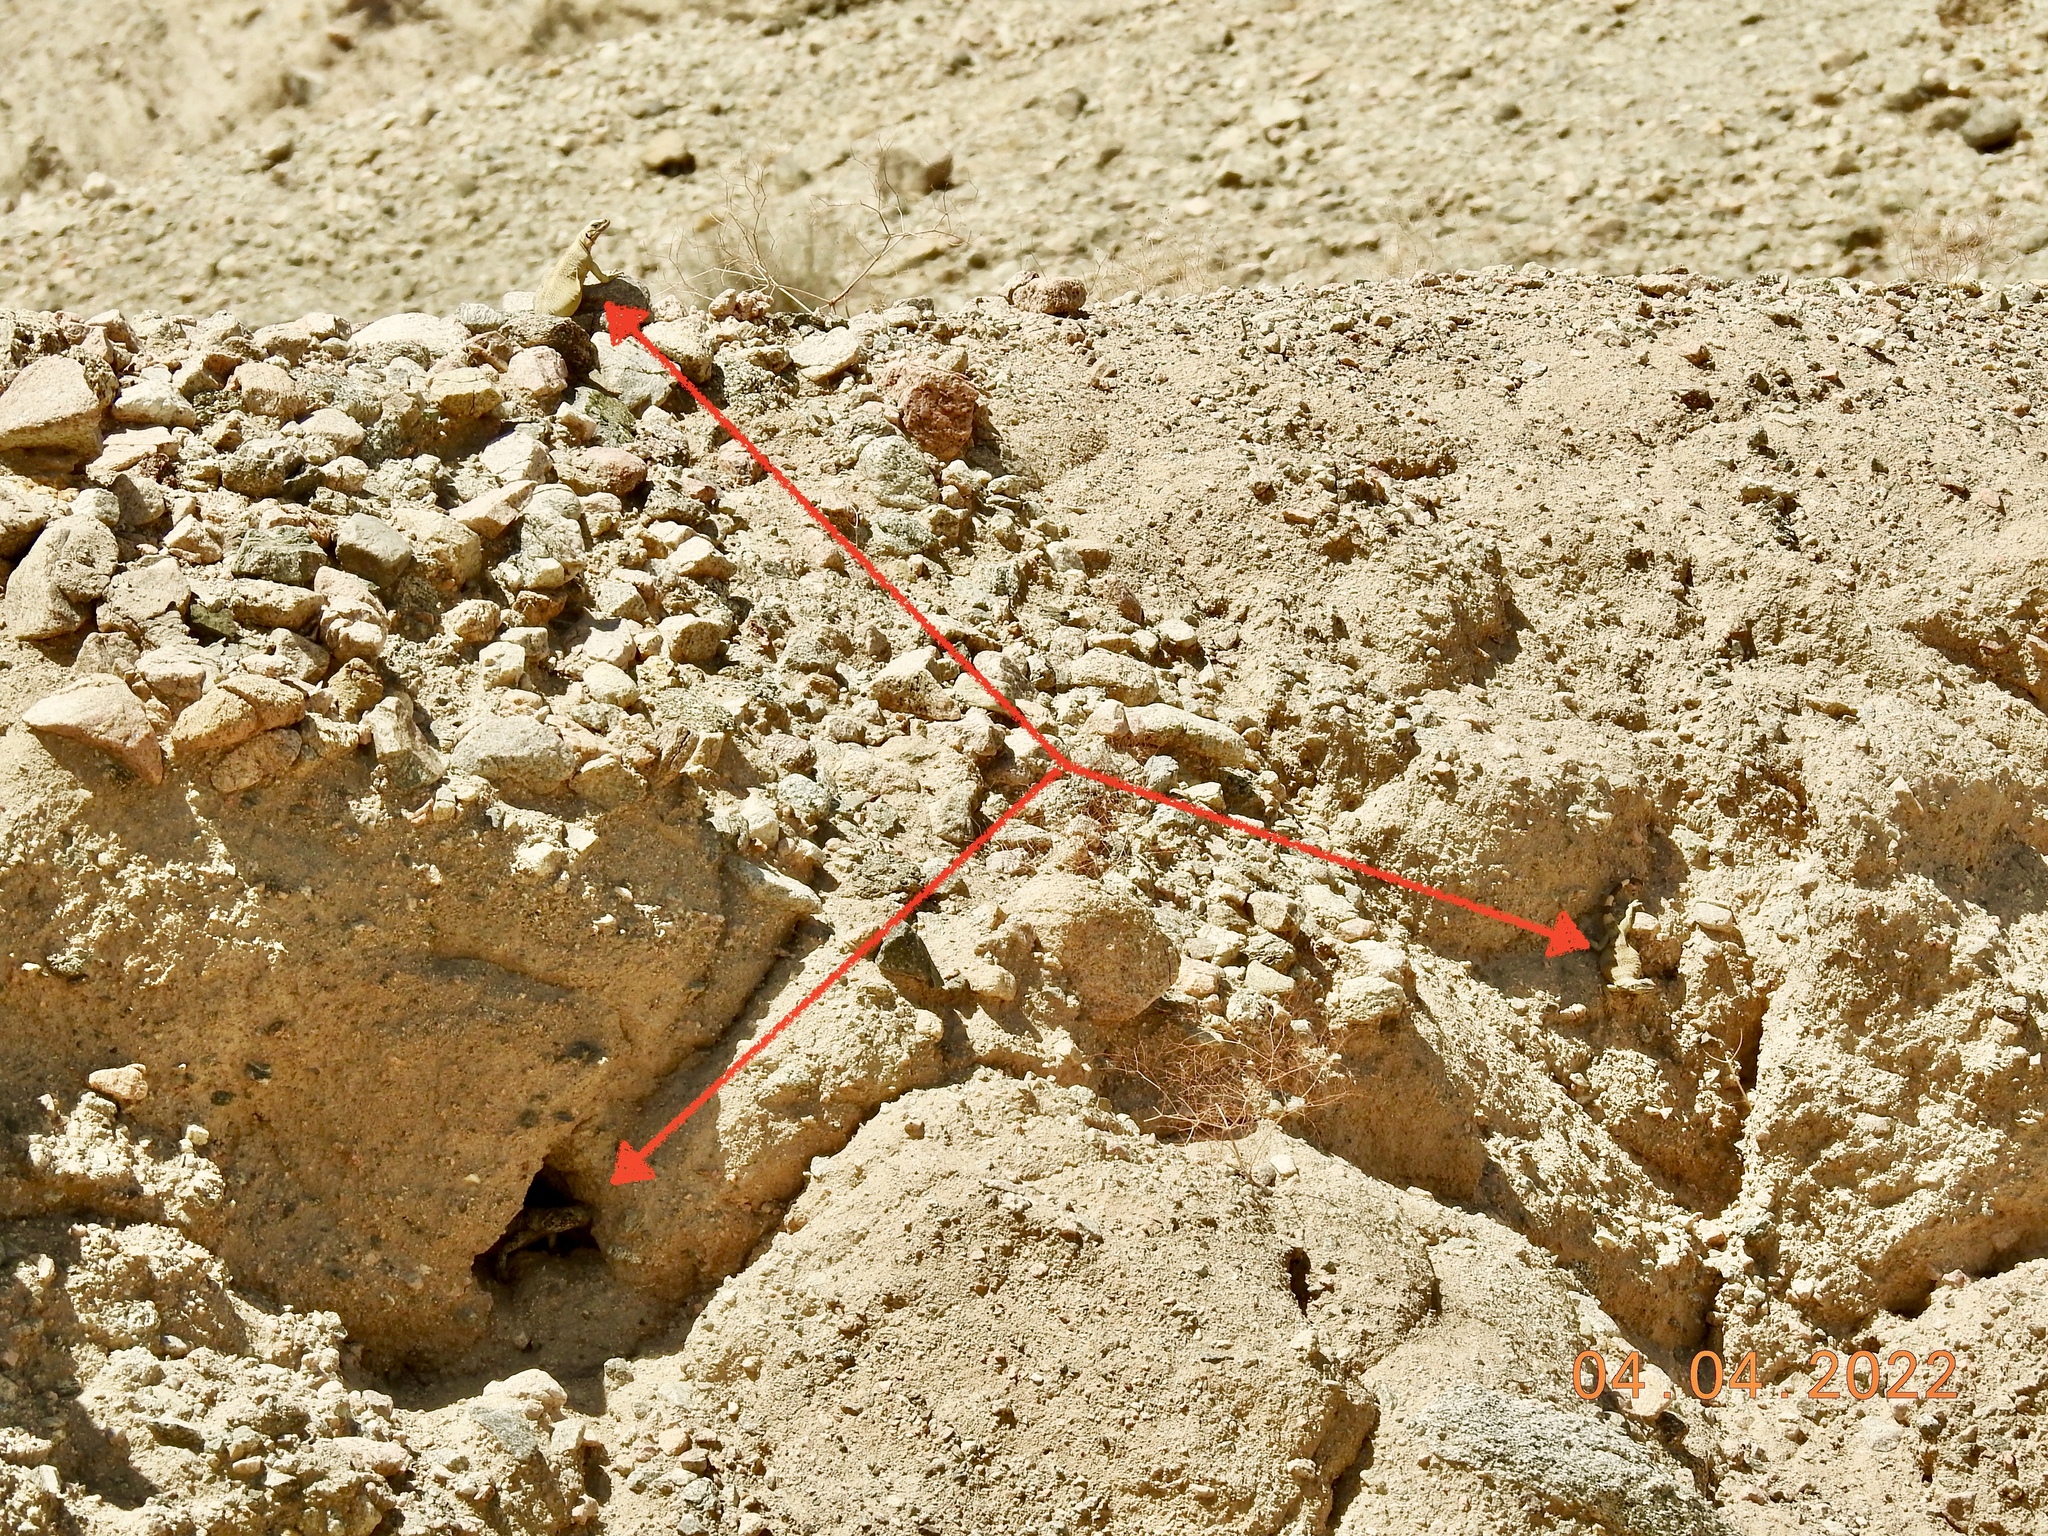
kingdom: Animalia
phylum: Chordata
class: Squamata
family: Iguanidae
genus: Sauromalus
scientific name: Sauromalus ater
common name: Northern chuckwalla
